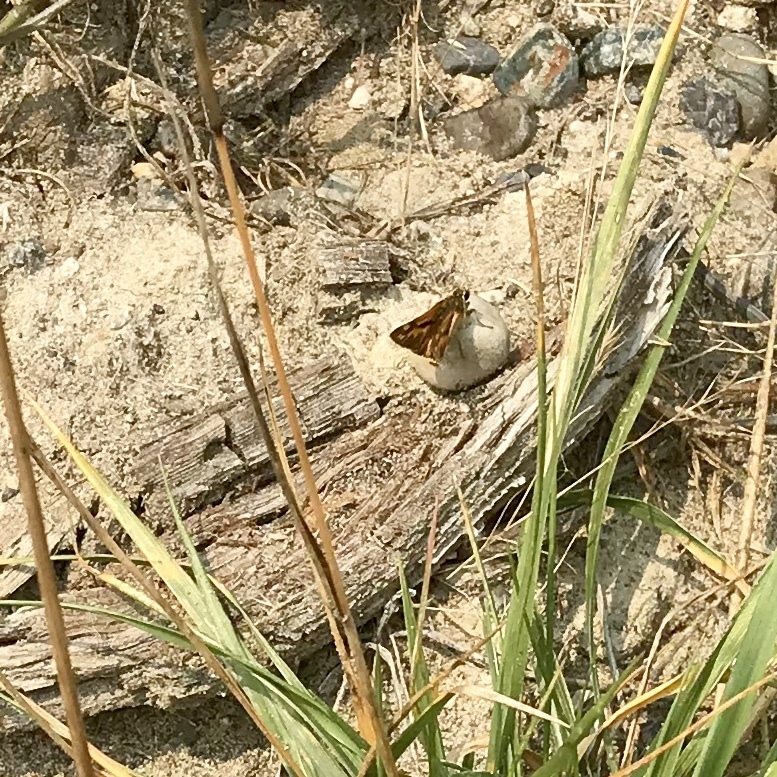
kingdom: Animalia
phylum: Arthropoda
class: Insecta
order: Lepidoptera
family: Hesperiidae
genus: Ochlodes
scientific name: Ochlodes sylvanoides
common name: Woodland skipper
